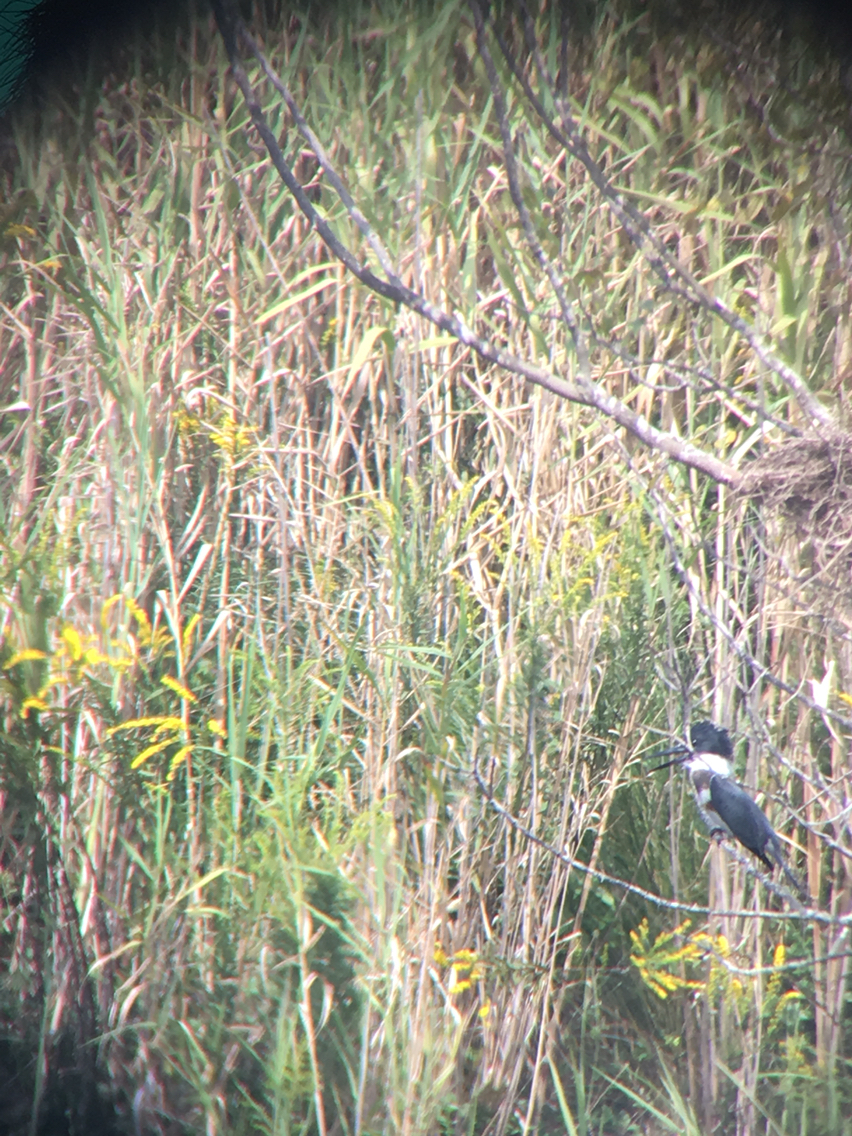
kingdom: Animalia
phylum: Chordata
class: Aves
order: Coraciiformes
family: Alcedinidae
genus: Megaceryle
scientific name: Megaceryle alcyon
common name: Belted kingfisher
